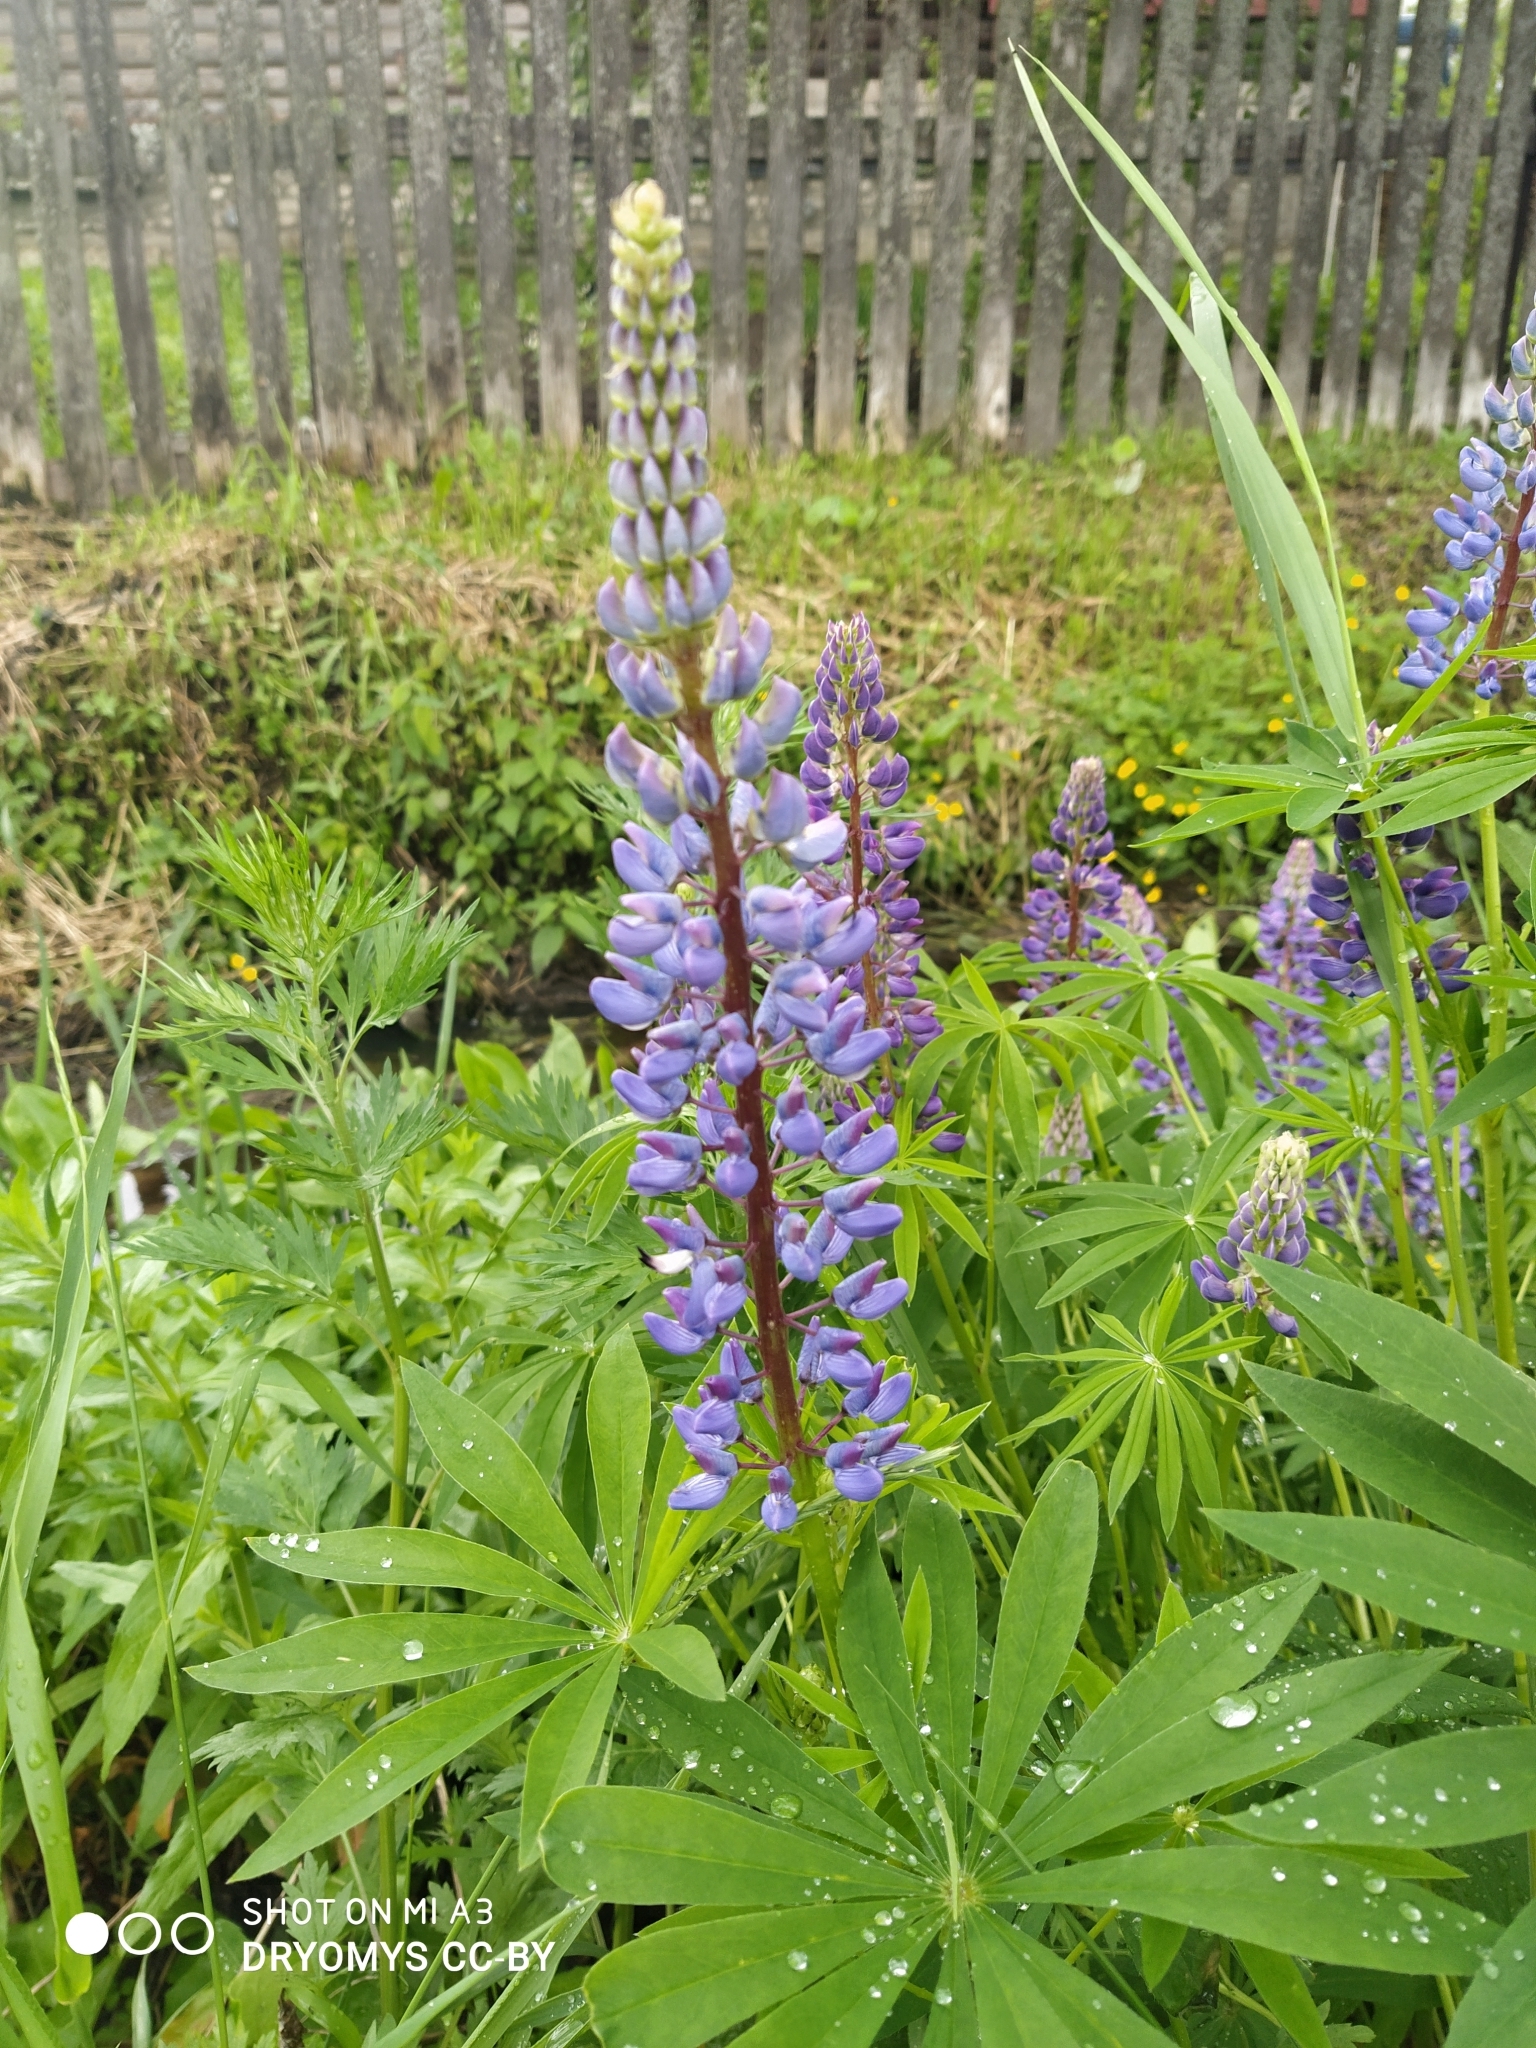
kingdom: Plantae
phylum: Tracheophyta
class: Magnoliopsida
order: Fabales
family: Fabaceae
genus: Lupinus
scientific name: Lupinus polyphyllus
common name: Garden lupin
